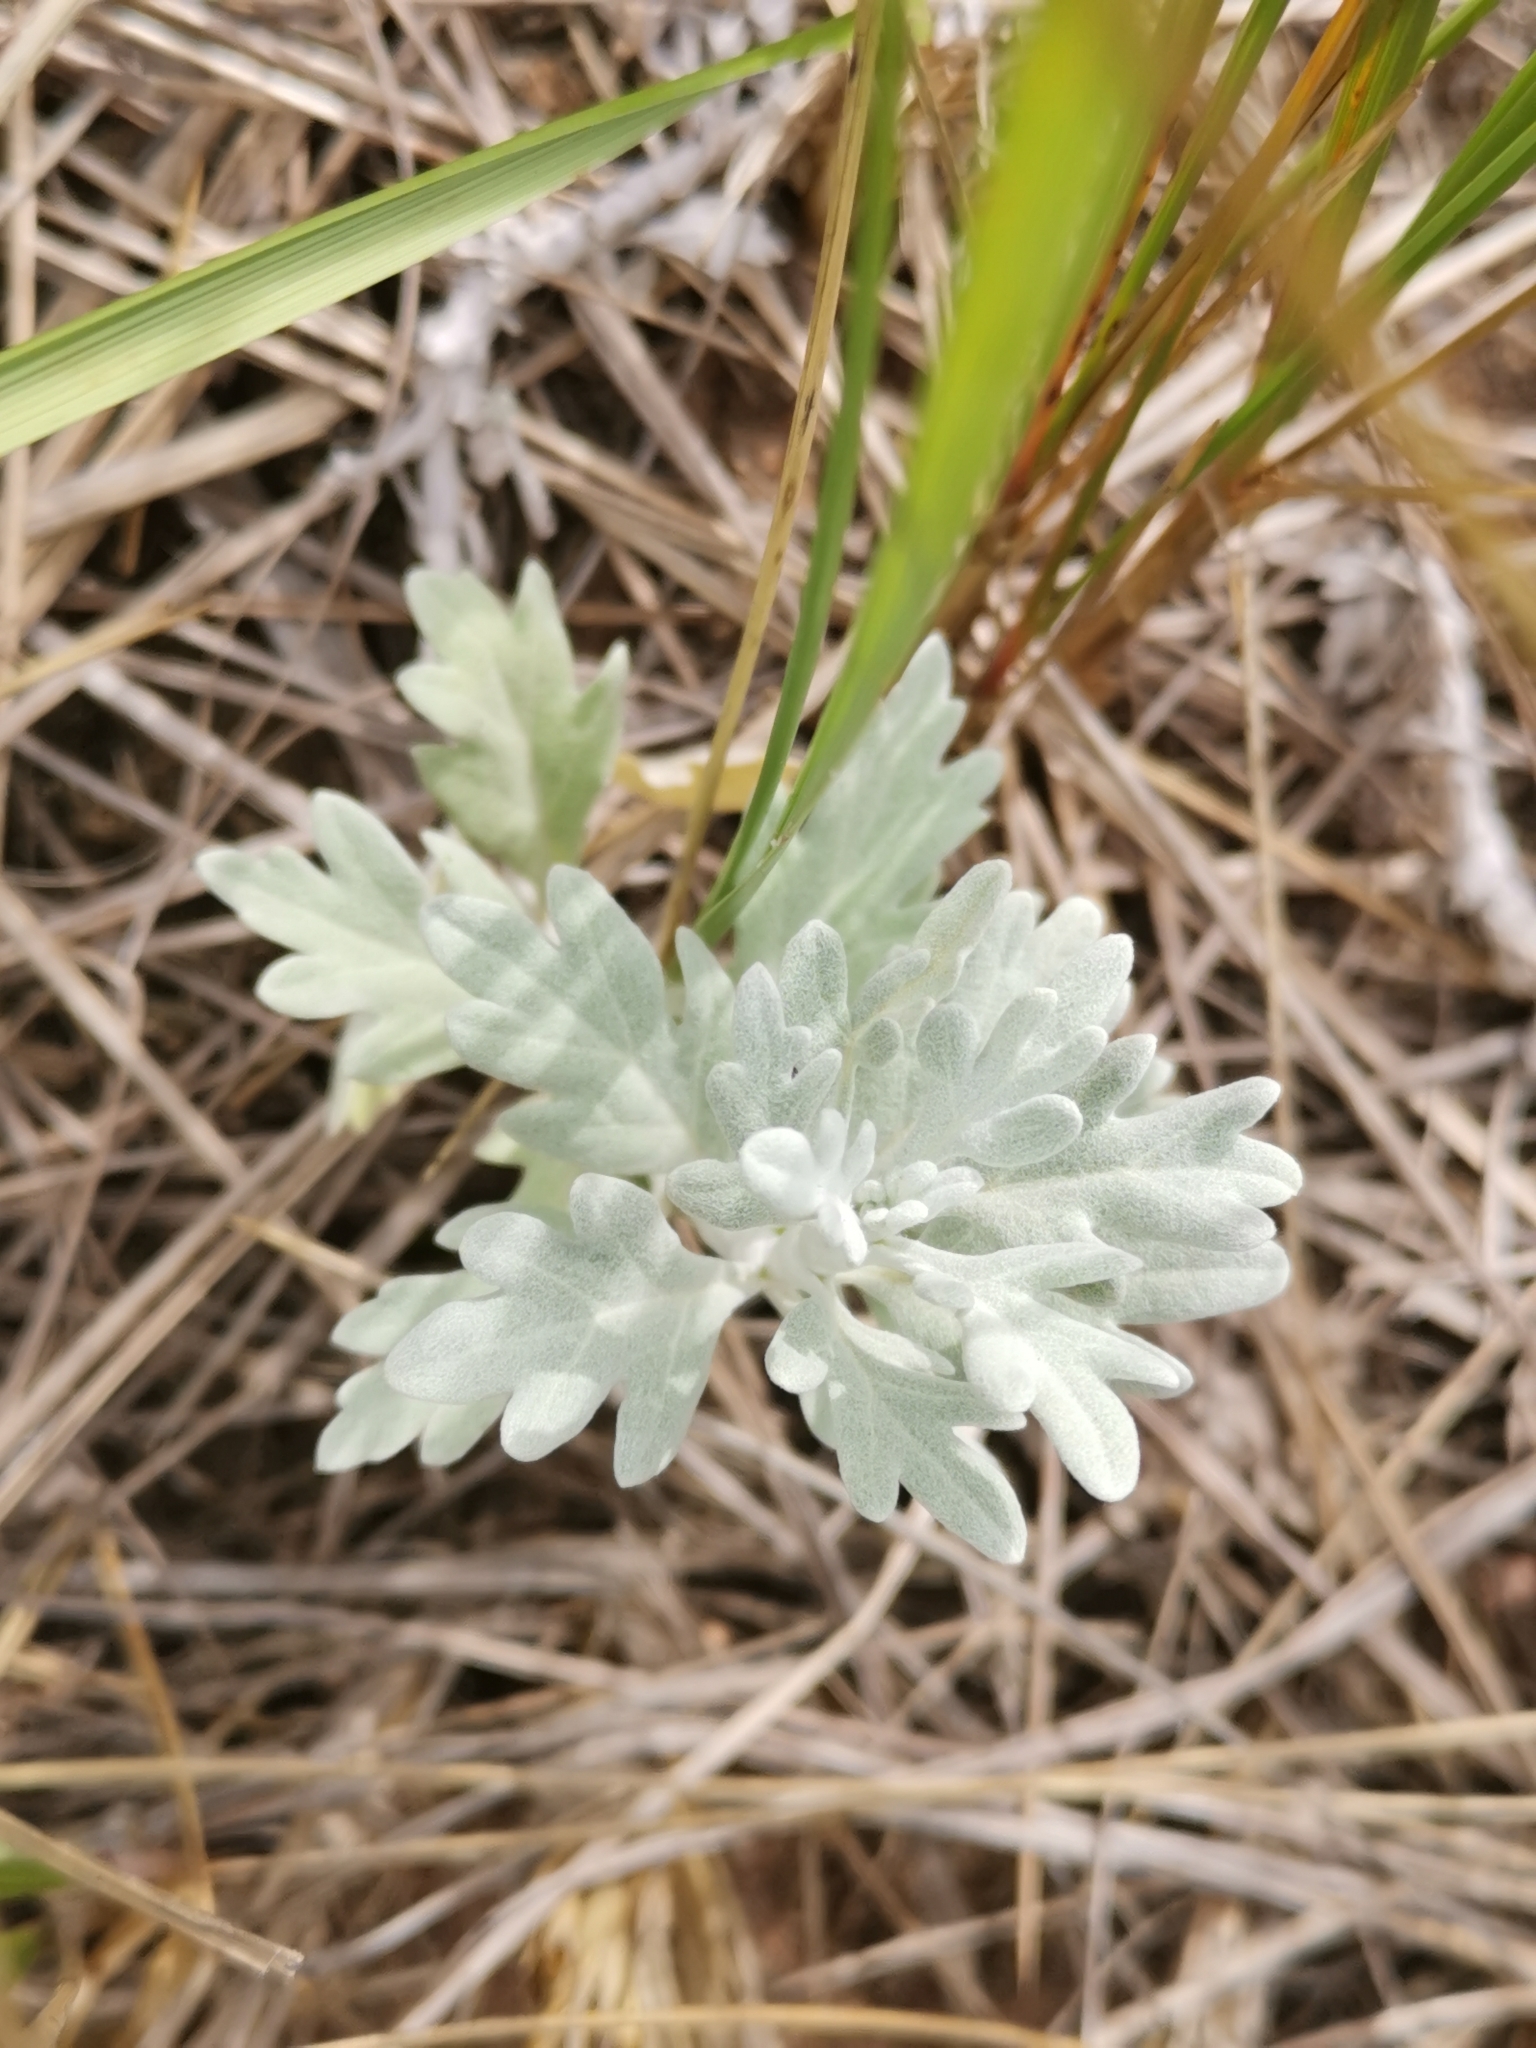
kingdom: Plantae
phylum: Tracheophyta
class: Magnoliopsida
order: Asterales
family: Asteraceae
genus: Artemisia
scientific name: Artemisia stelleriana
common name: Beach wormwood
